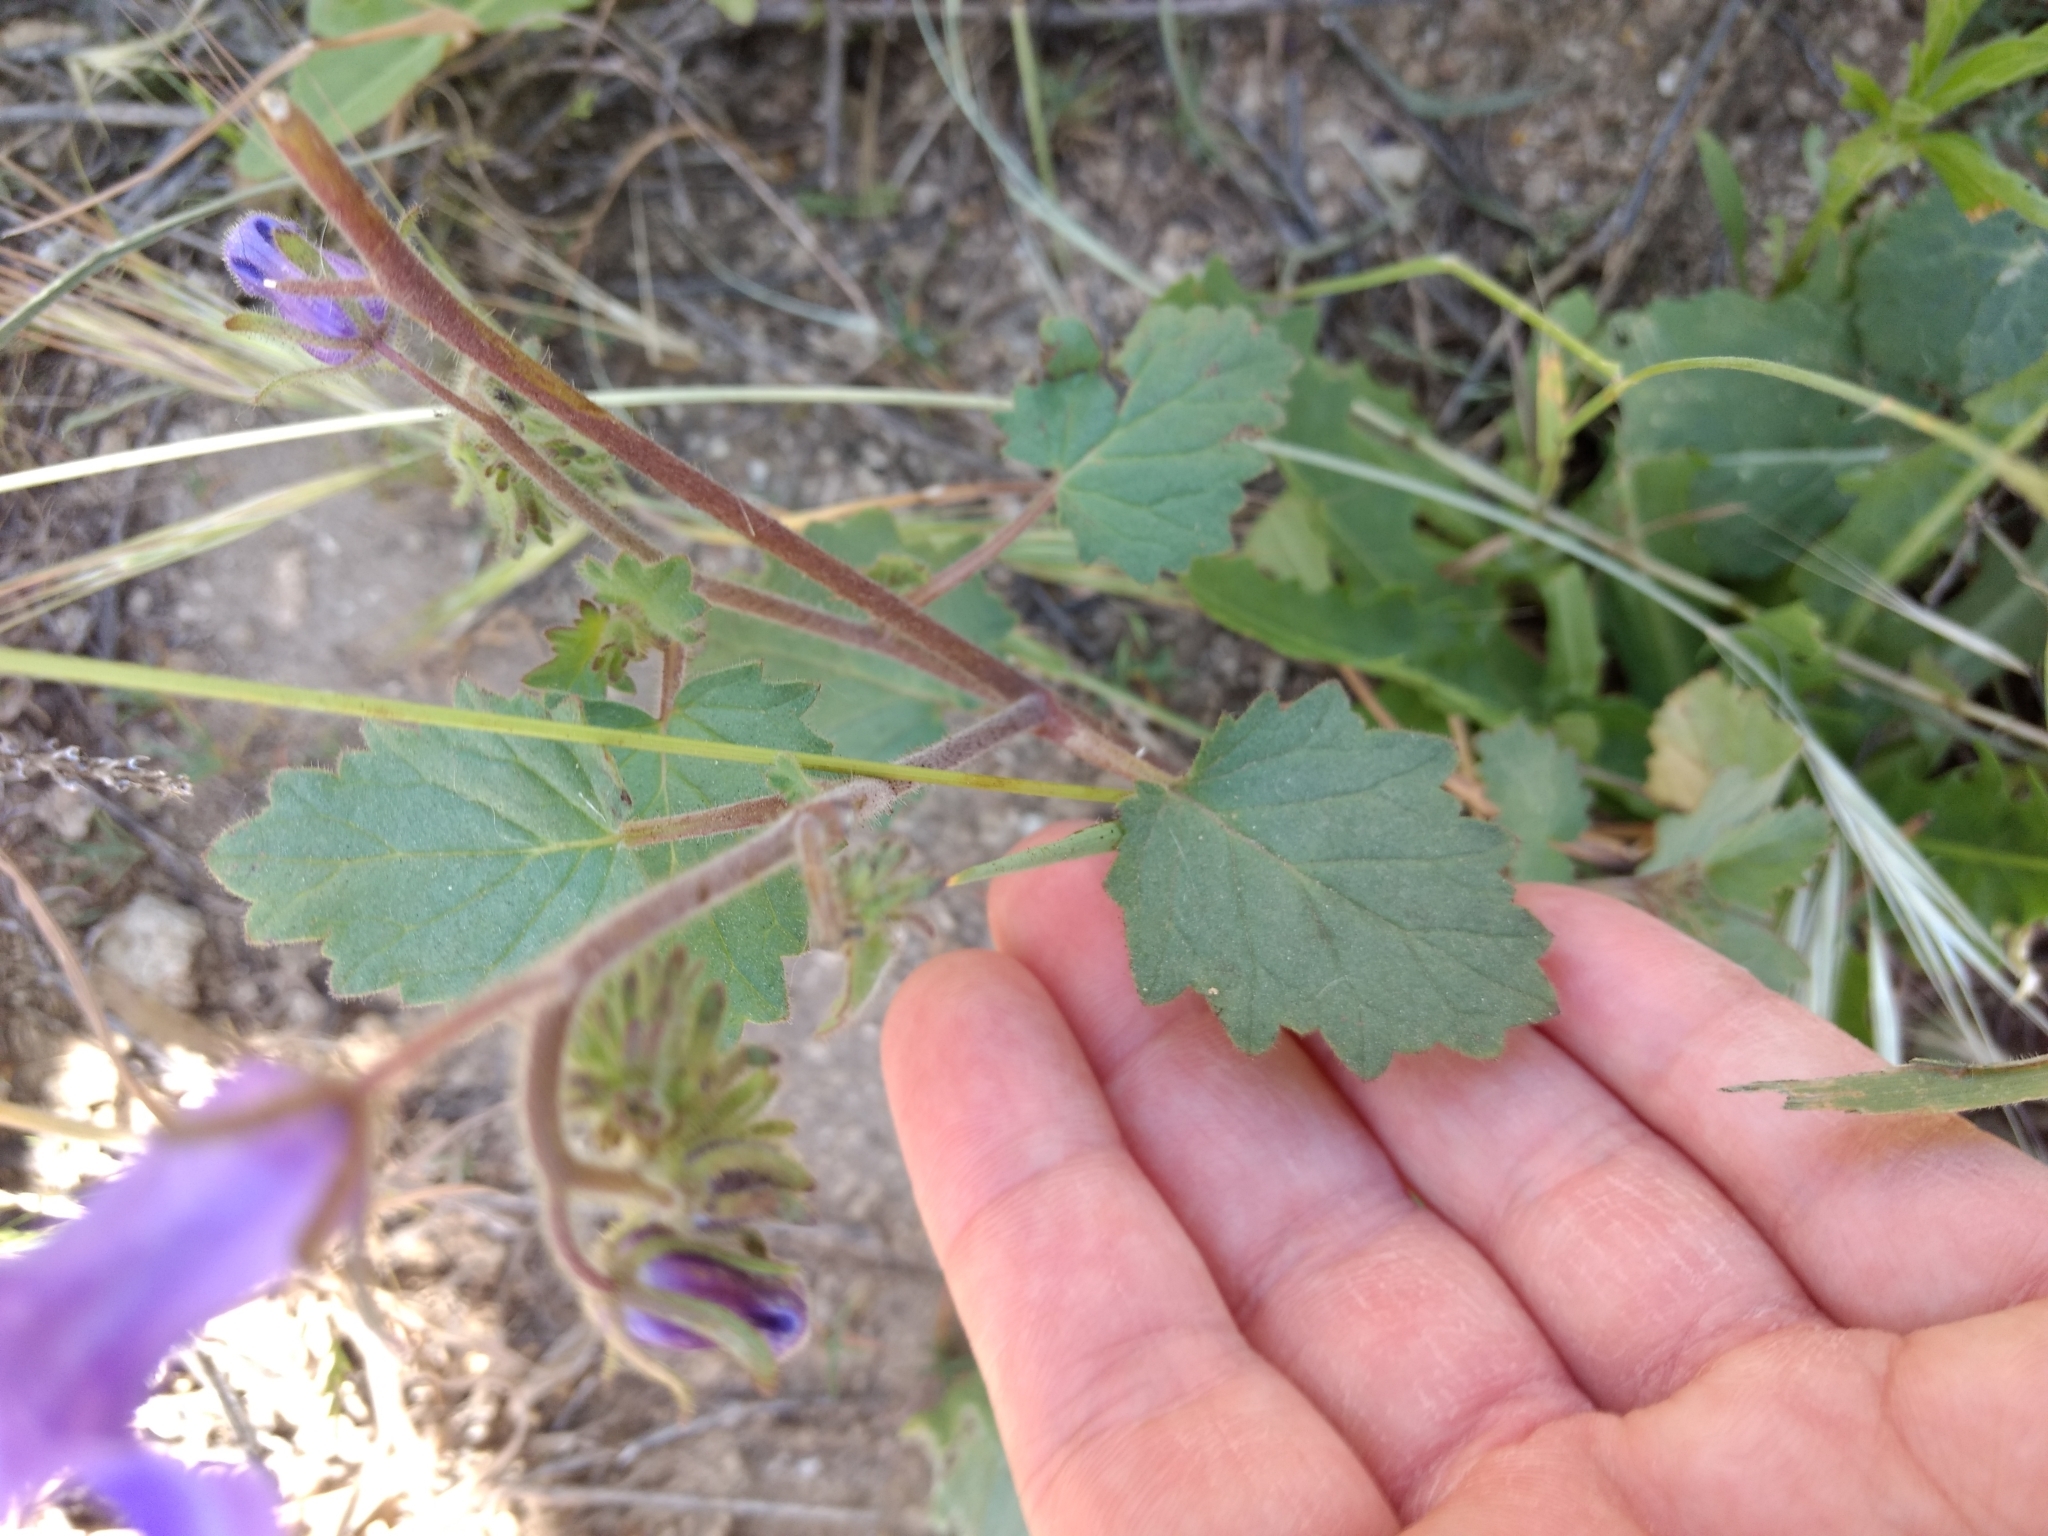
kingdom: Plantae
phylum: Tracheophyta
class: Magnoliopsida
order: Boraginales
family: Hydrophyllaceae
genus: Phacelia
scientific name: Phacelia minor
